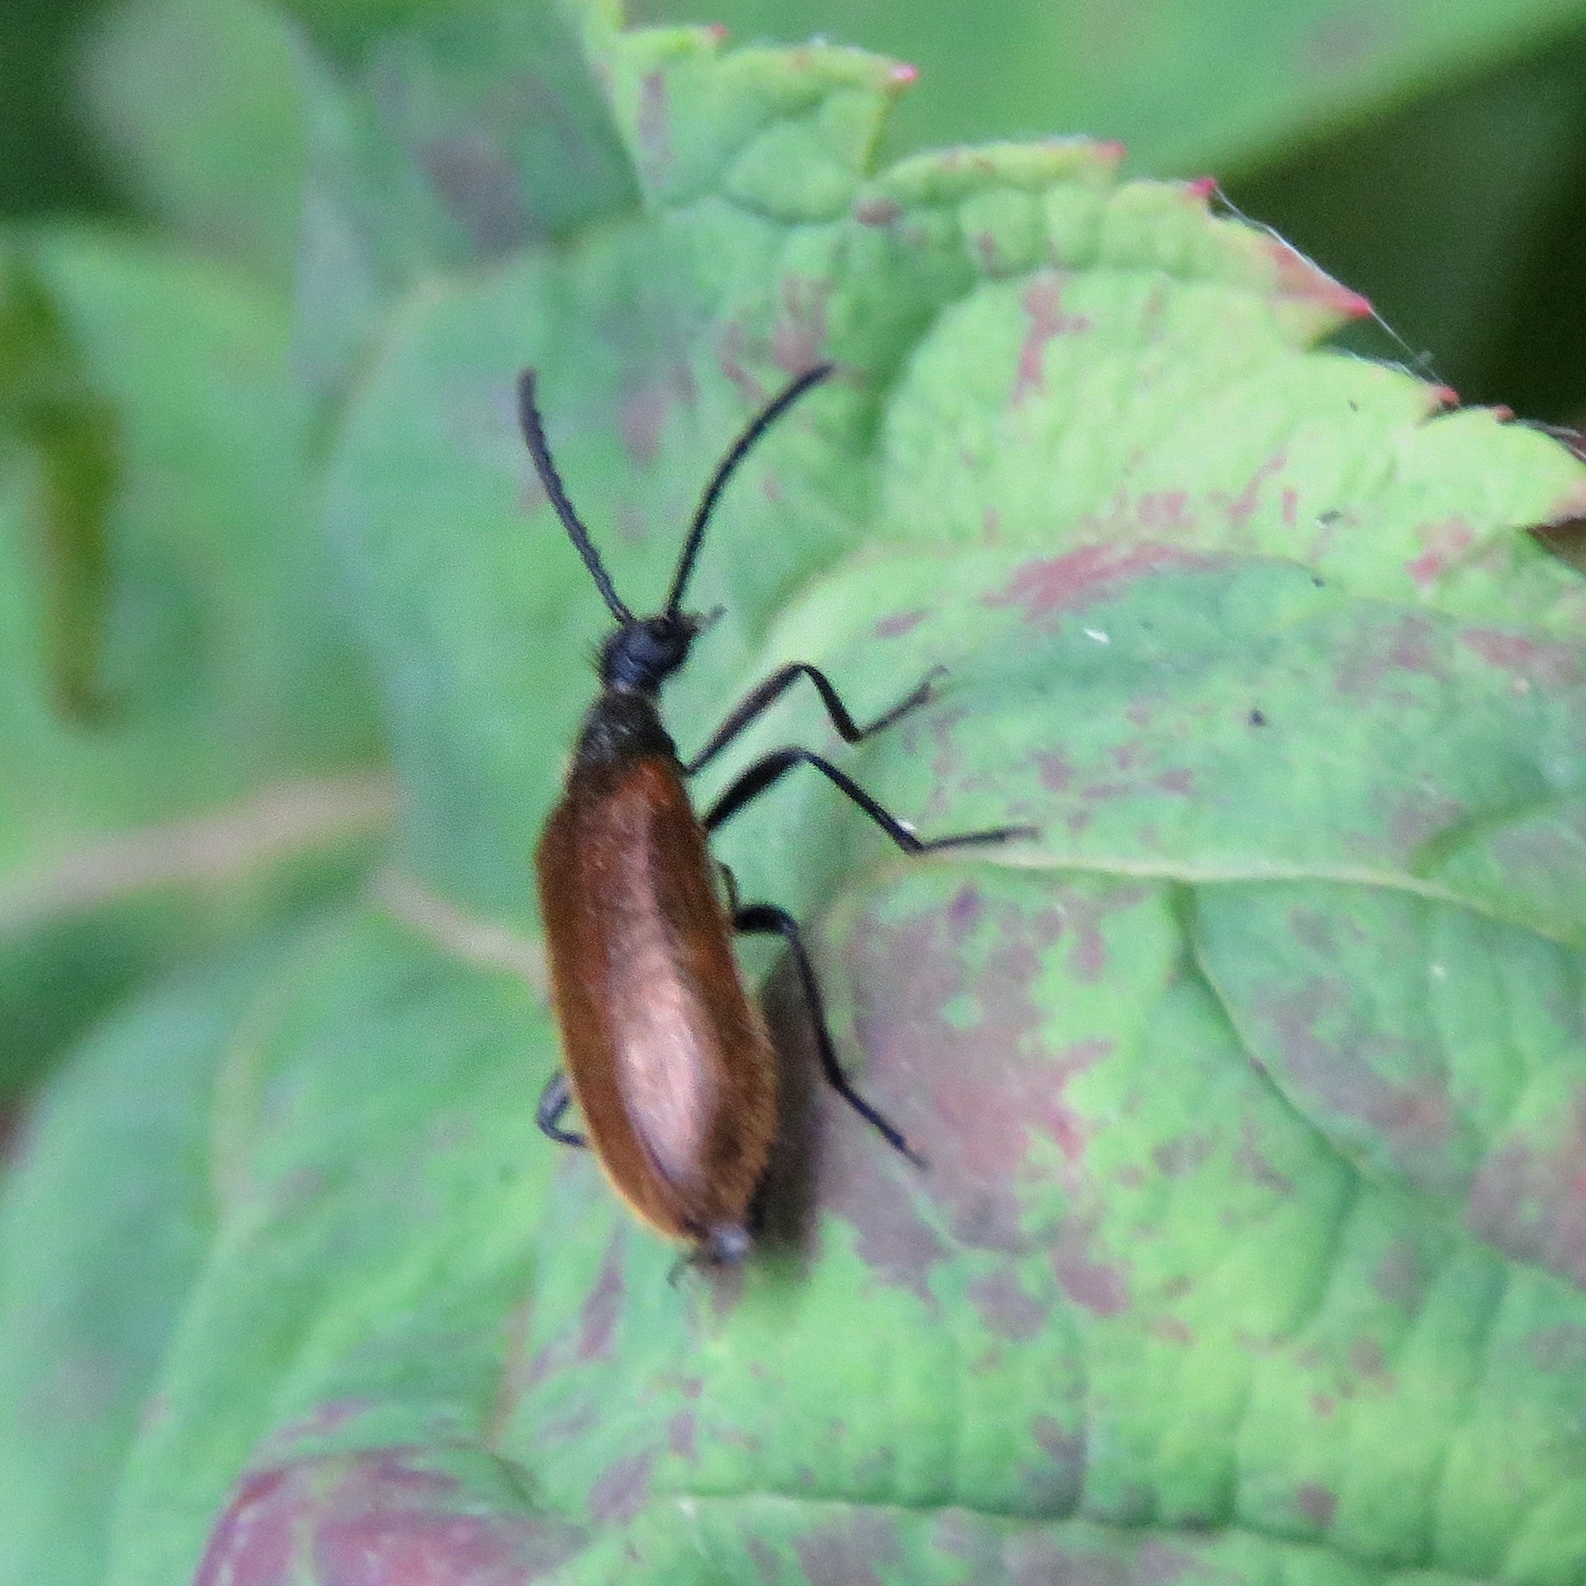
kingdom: Animalia
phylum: Arthropoda
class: Insecta
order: Coleoptera
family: Tenebrionidae
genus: Lagria
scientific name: Lagria hirta
